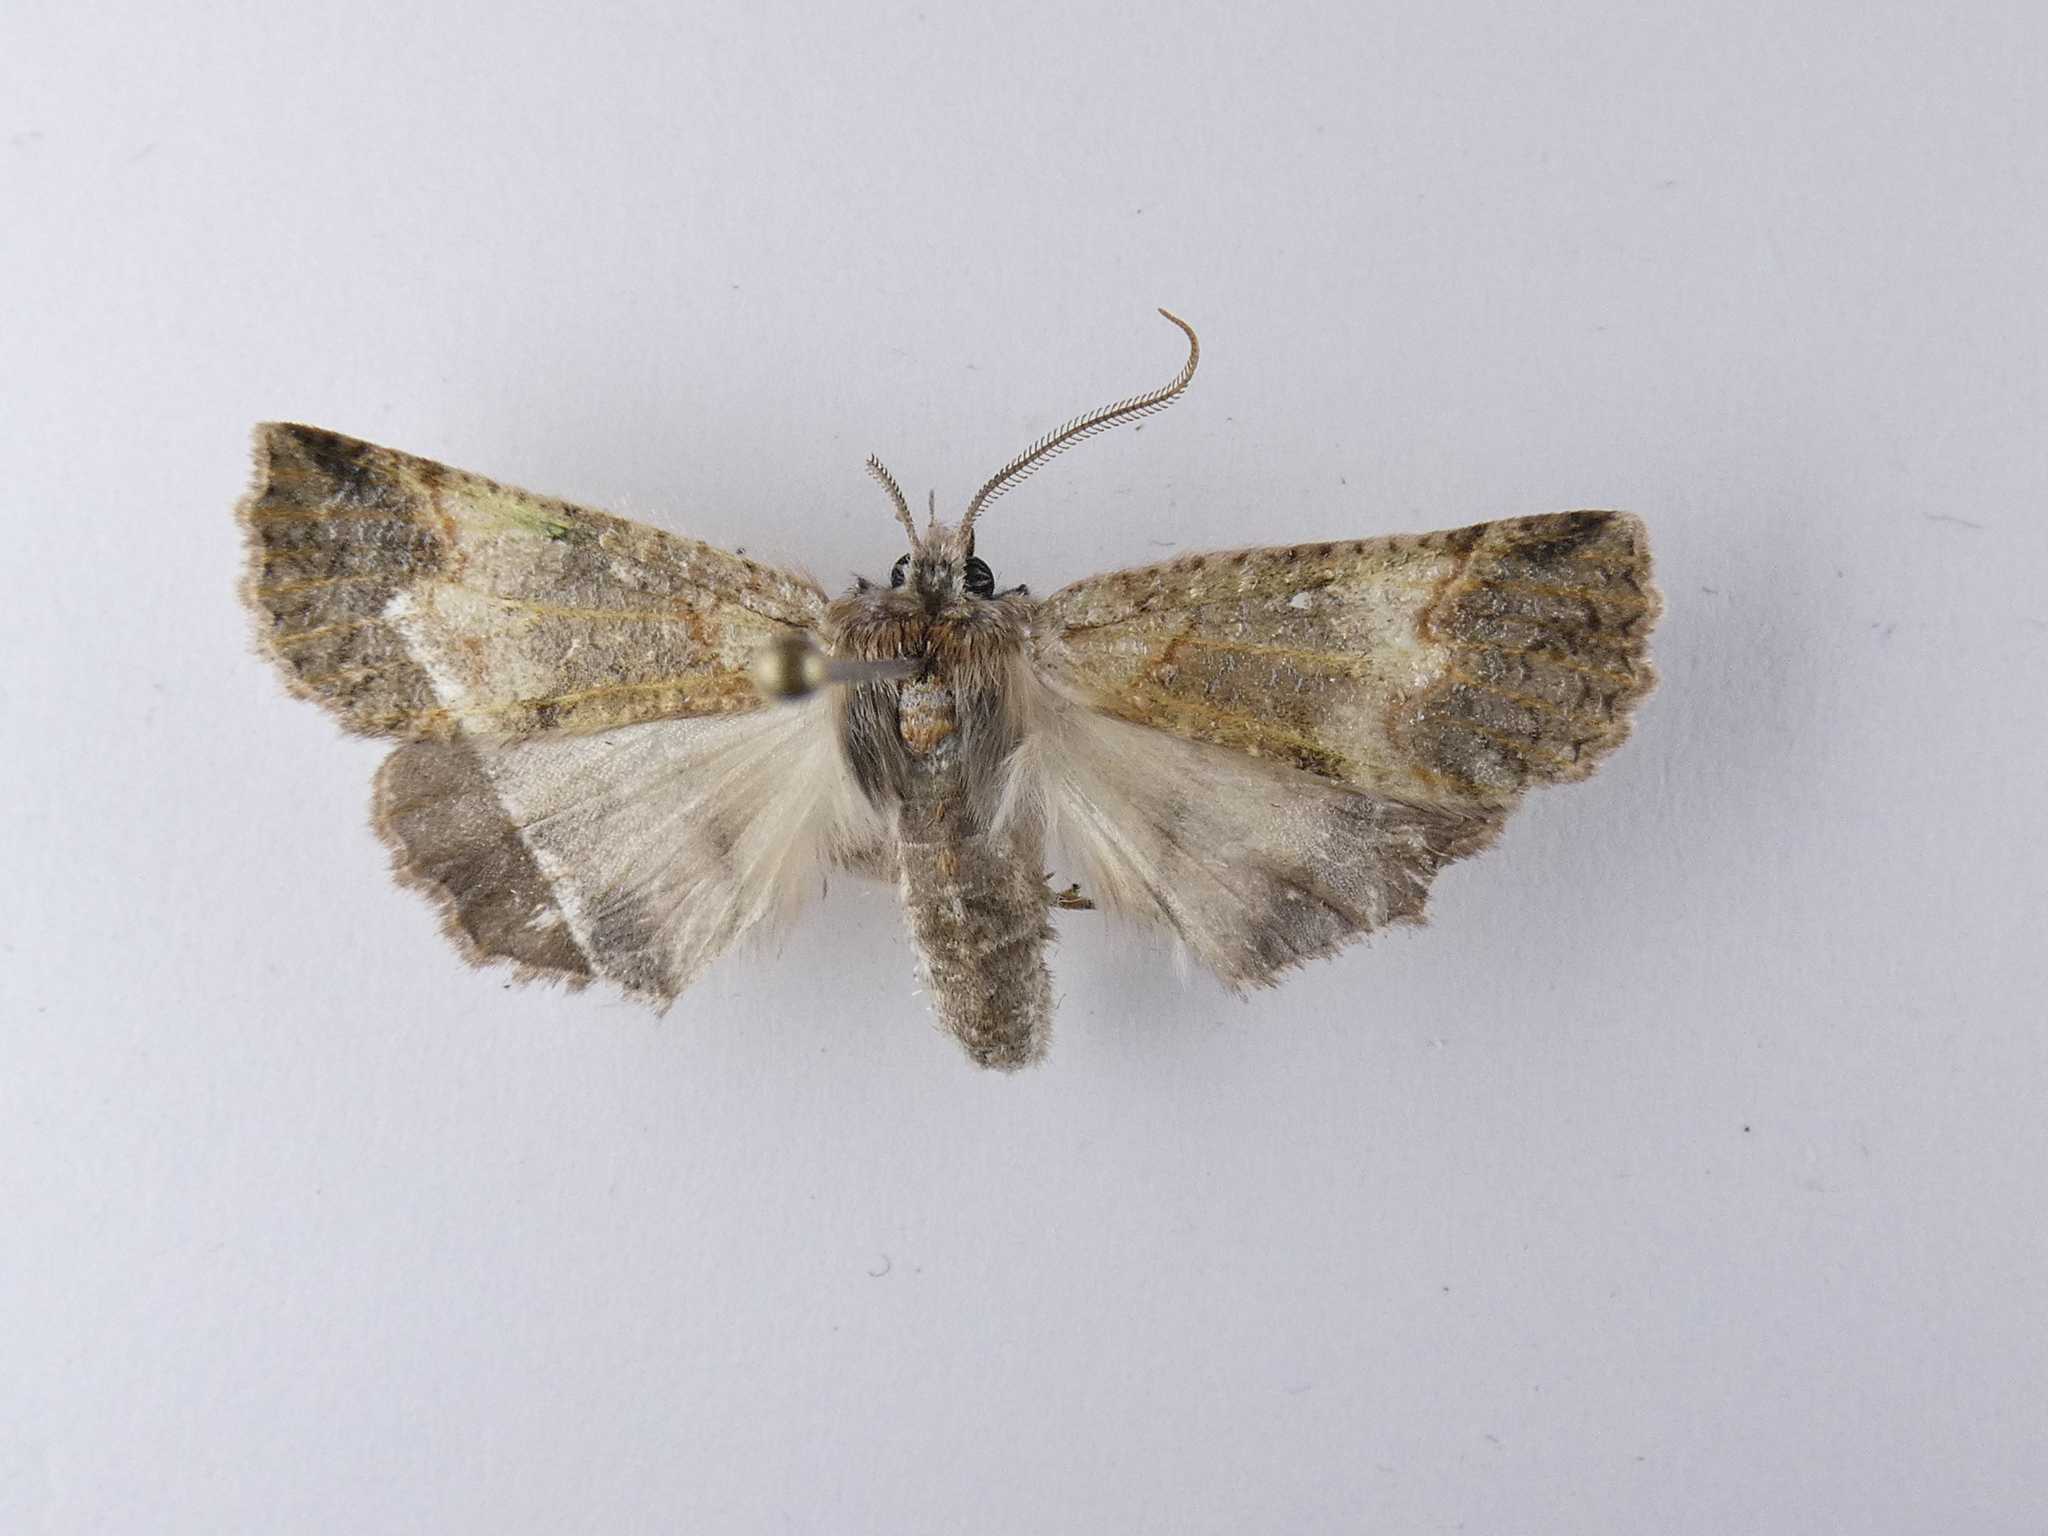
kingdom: Animalia
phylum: Arthropoda
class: Insecta
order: Lepidoptera
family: Geometridae
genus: Declana
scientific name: Declana floccosa
